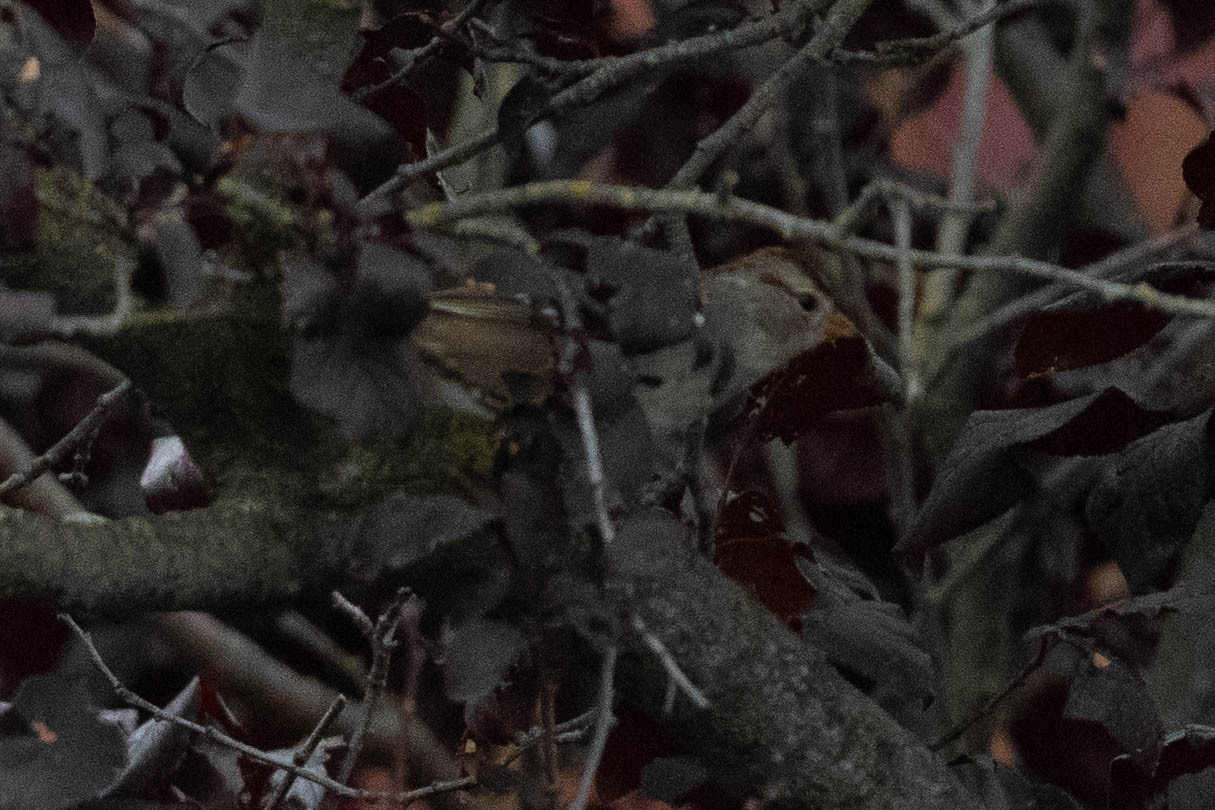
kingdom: Animalia
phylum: Chordata
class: Aves
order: Passeriformes
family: Passerellidae
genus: Zonotrichia
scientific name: Zonotrichia leucophrys
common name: White-crowned sparrow
